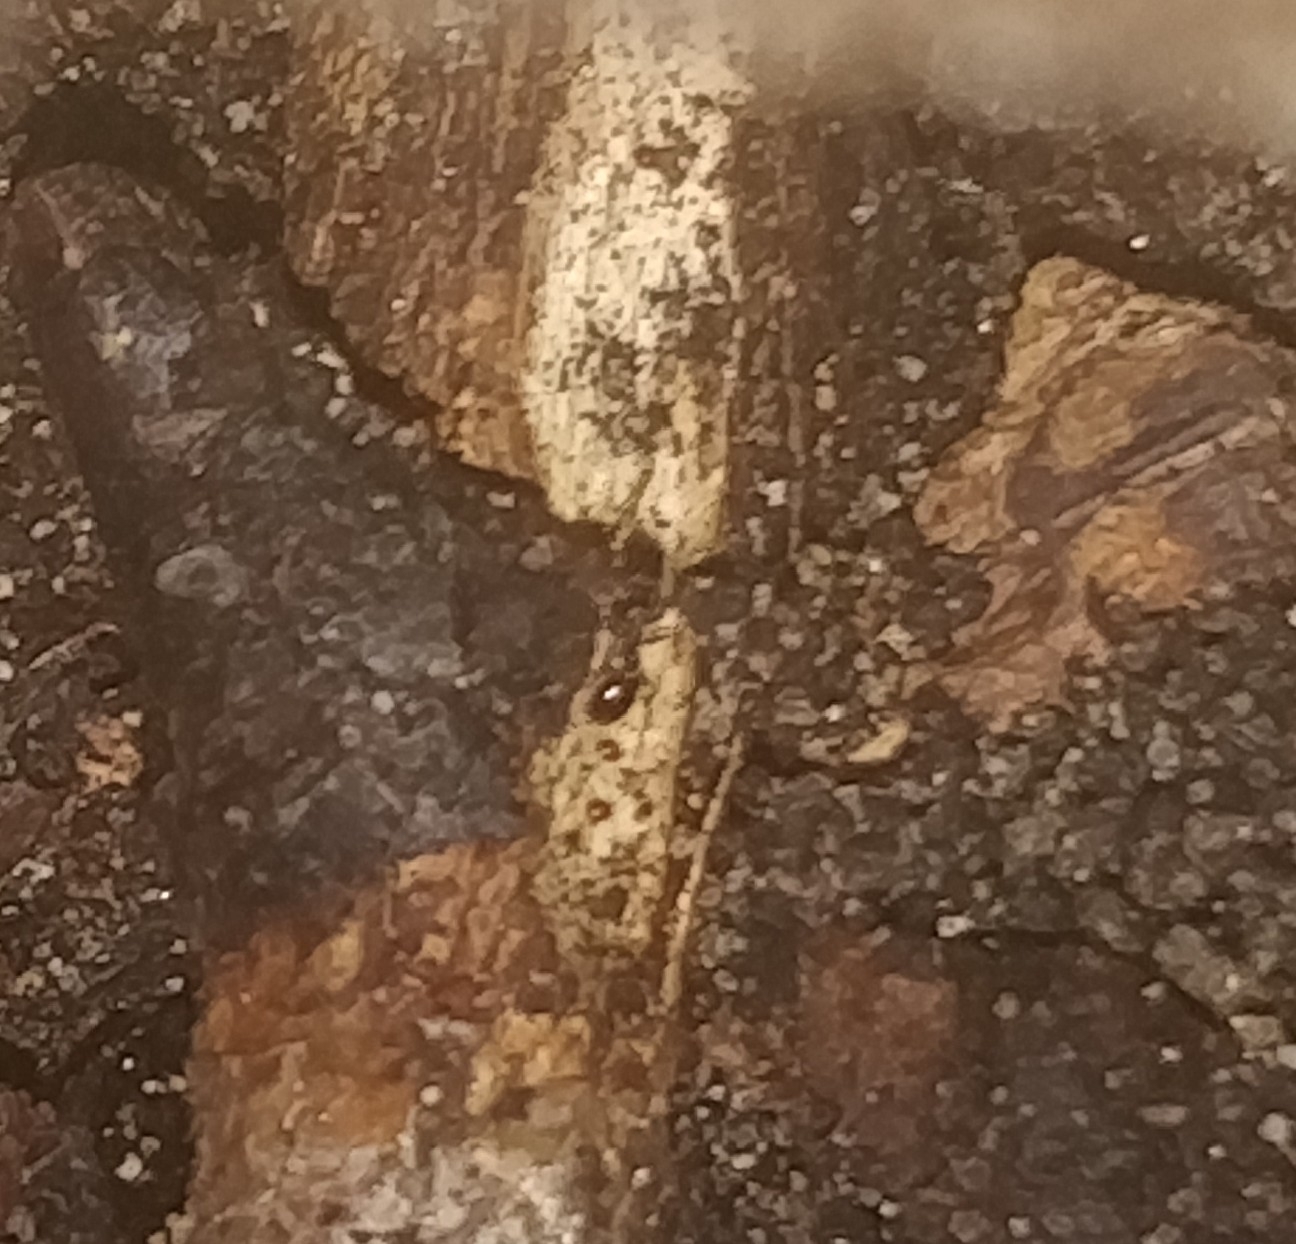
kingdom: Animalia
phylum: Arthropoda
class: Insecta
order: Hymenoptera
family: Formicidae
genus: Tetramorium
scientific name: Tetramorium immigrans
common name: Pavement ant
